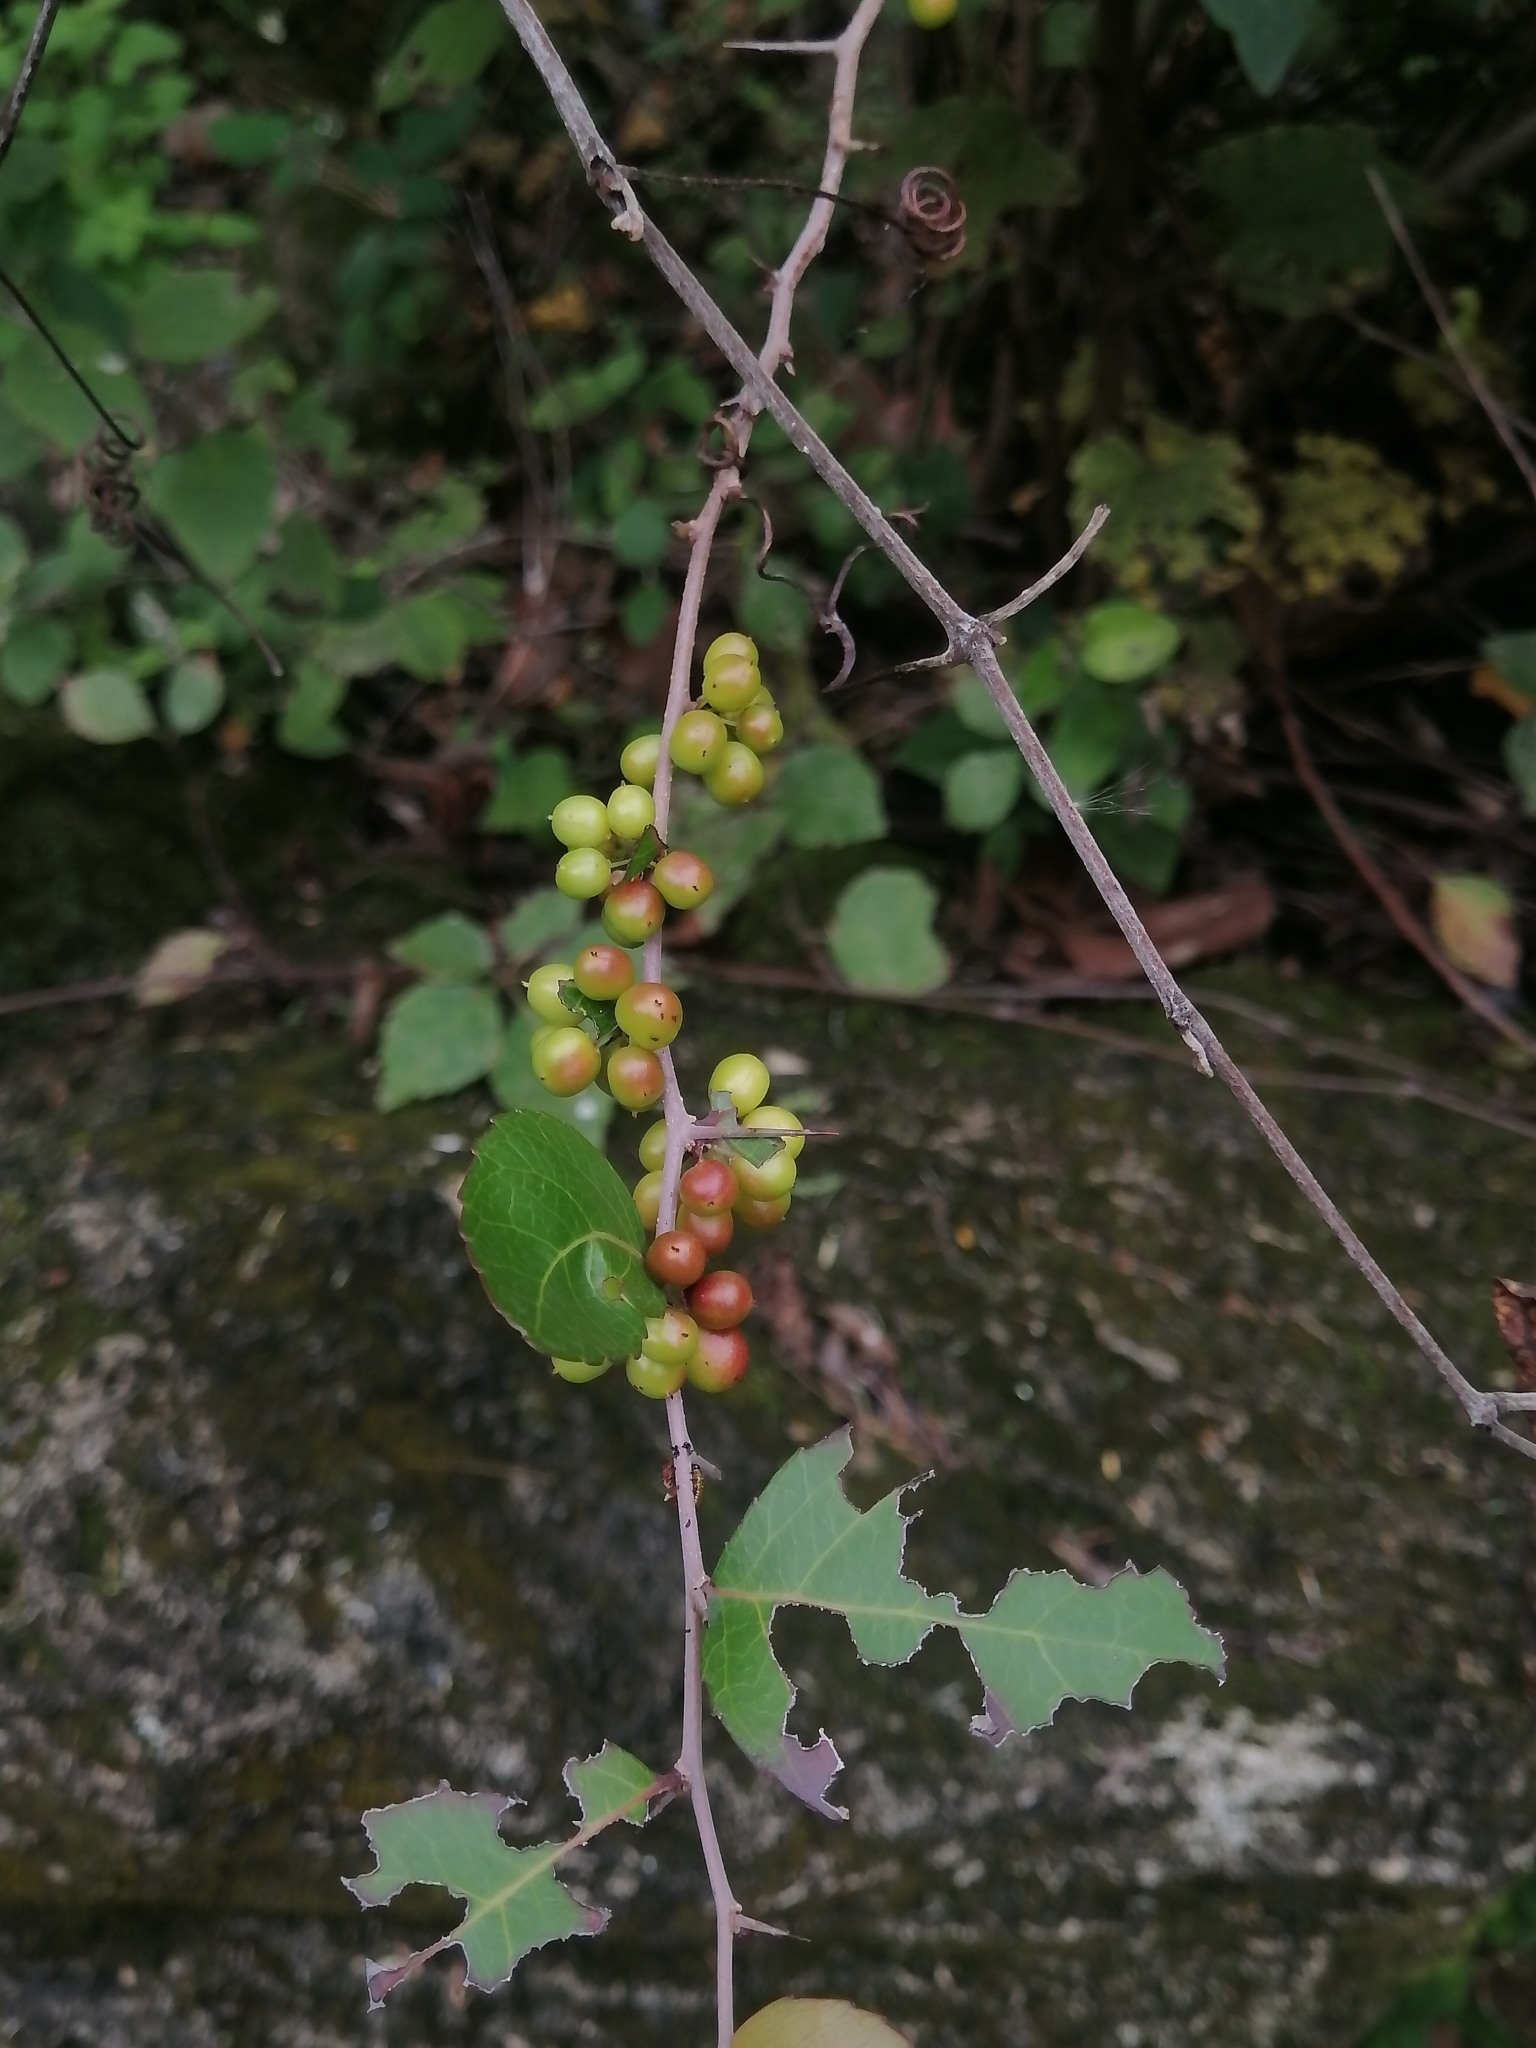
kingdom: Plantae
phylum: Tracheophyta
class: Magnoliopsida
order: Malpighiales
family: Salicaceae
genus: Xylosma
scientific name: Xylosma flexuosa
